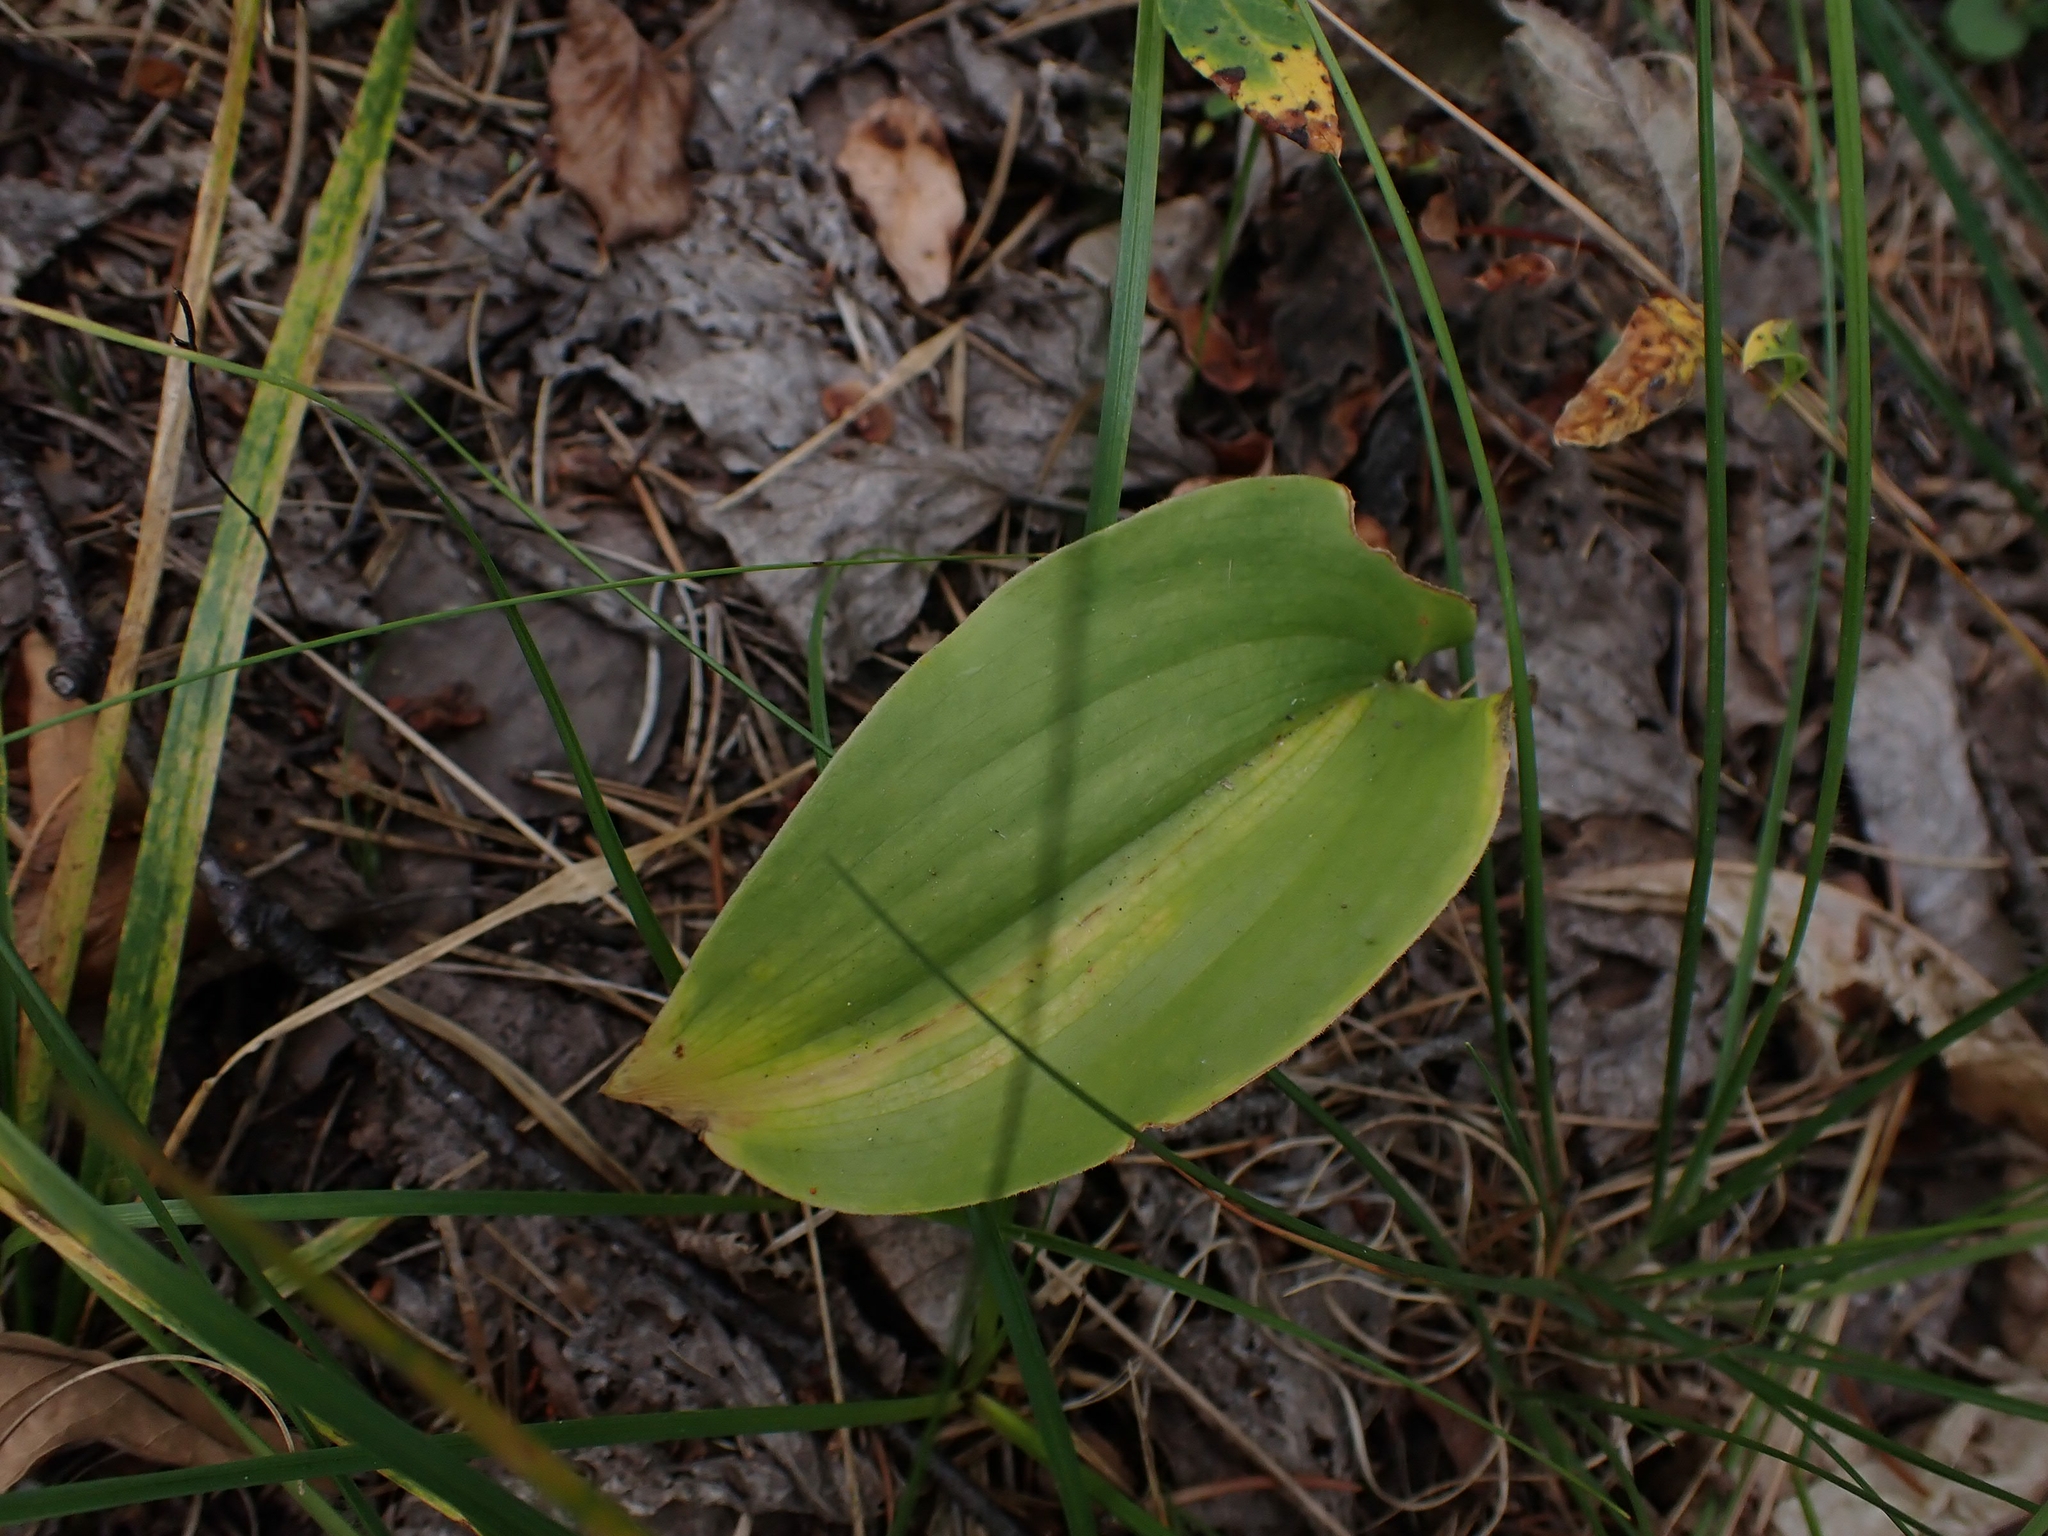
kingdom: Plantae
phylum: Tracheophyta
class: Liliopsida
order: Asparagales
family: Asparagaceae
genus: Maianthemum
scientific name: Maianthemum canadense
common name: False lily-of-the-valley
